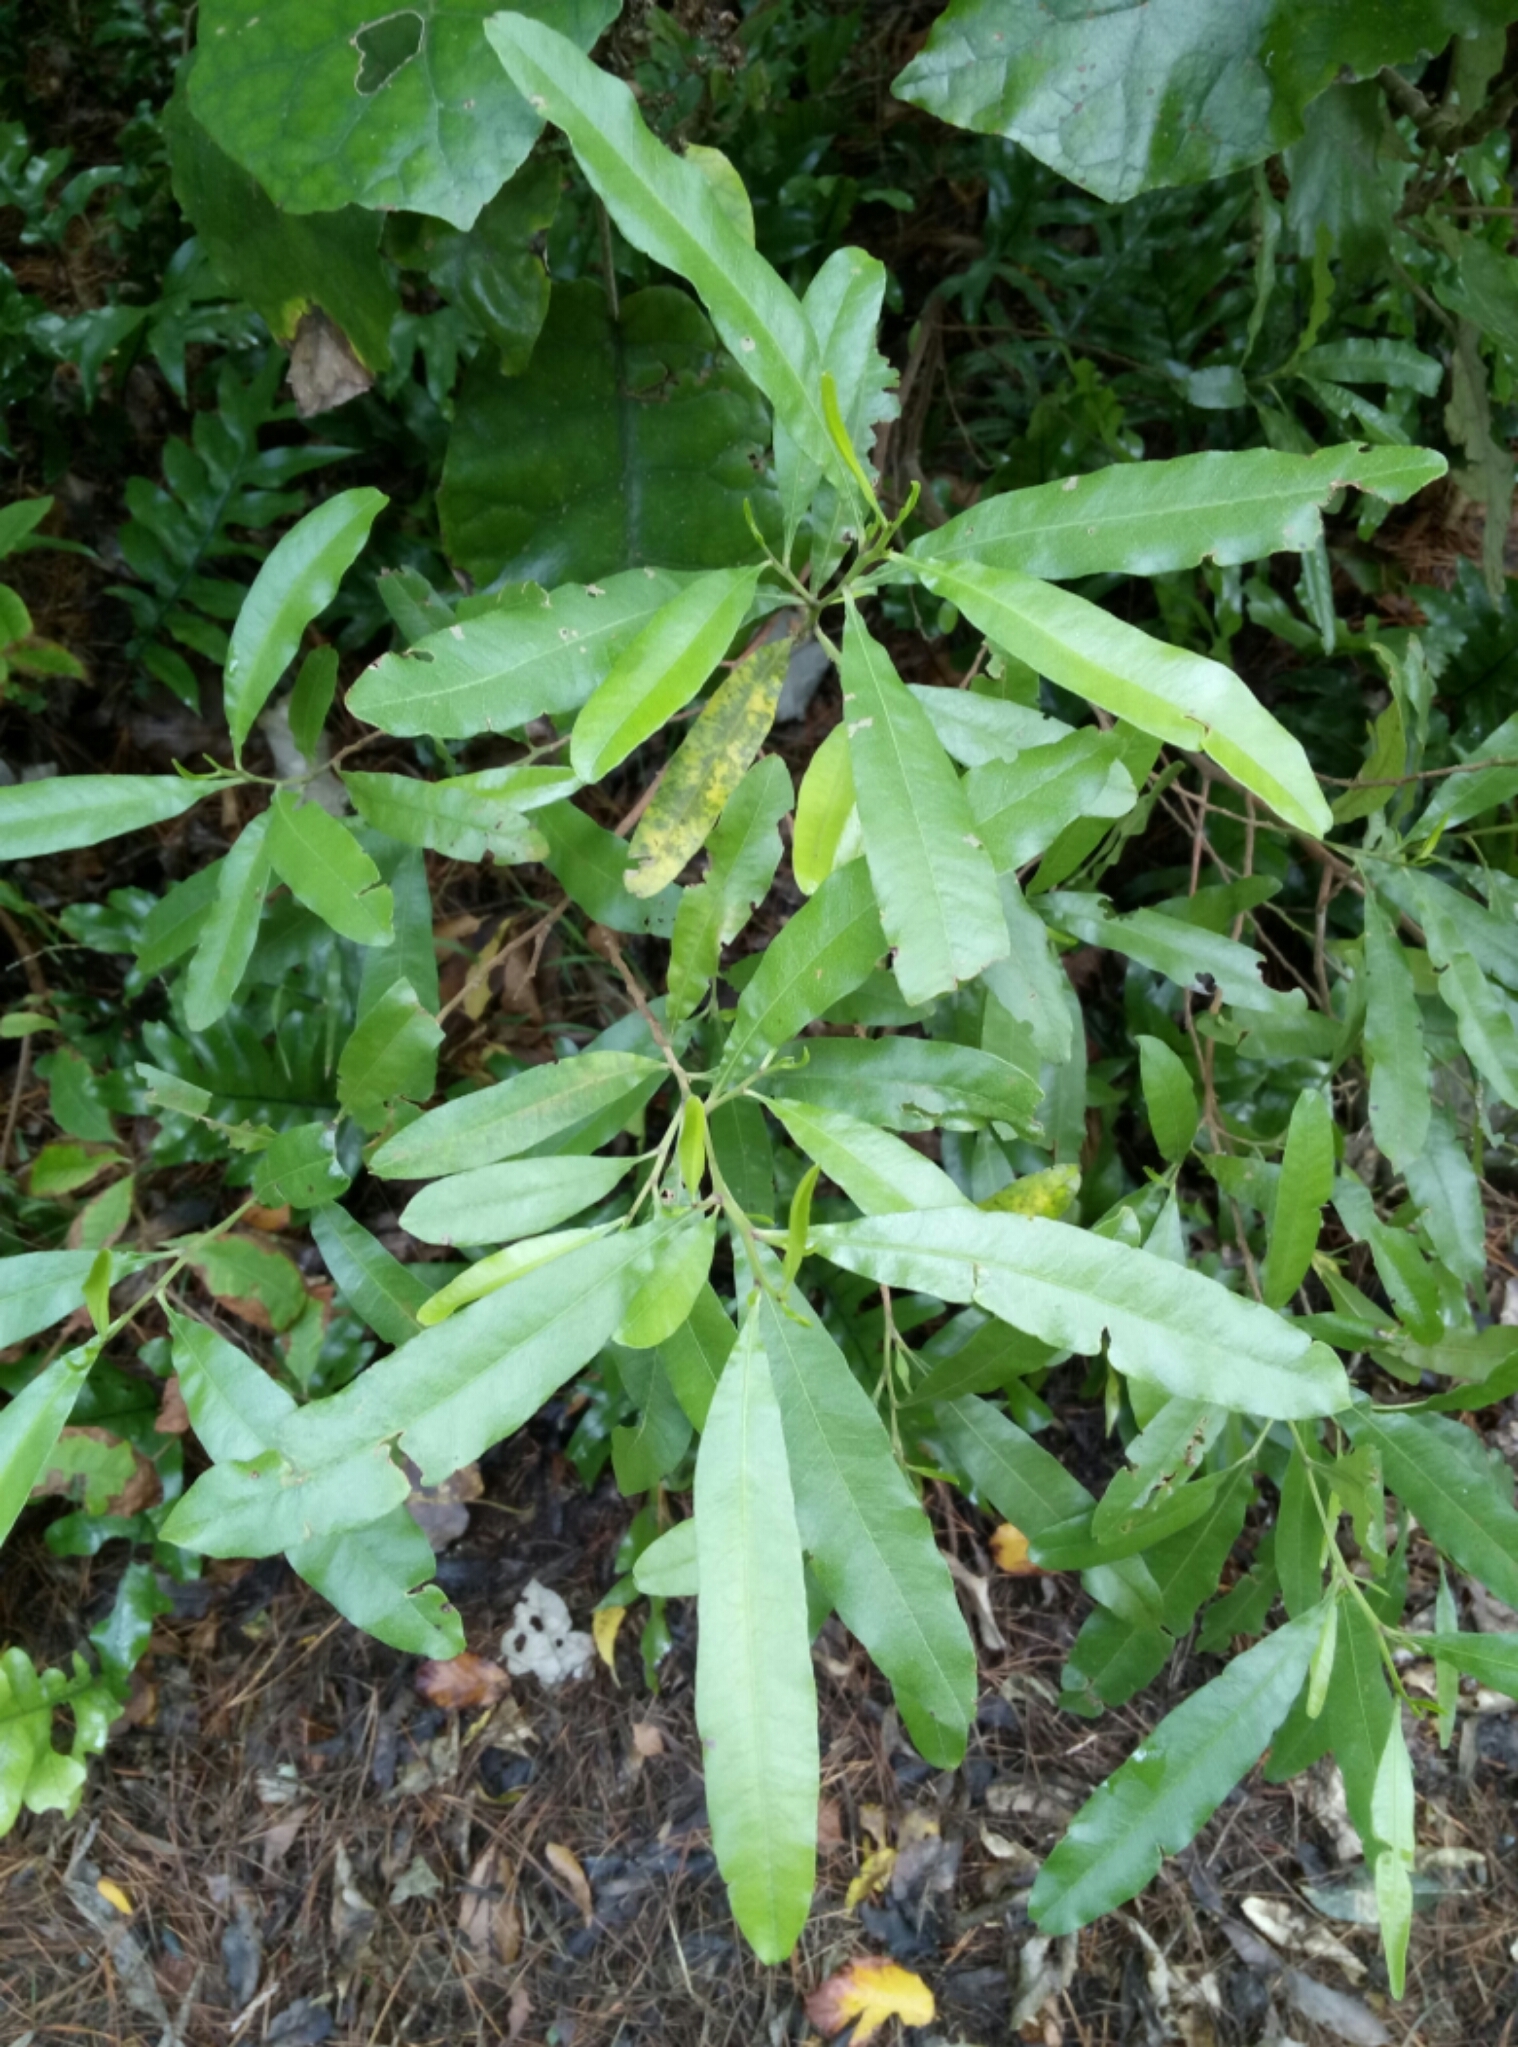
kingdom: Plantae
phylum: Tracheophyta
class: Magnoliopsida
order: Sapindales
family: Sapindaceae
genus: Dodonaea
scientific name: Dodonaea viscosa
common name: Hopbush
